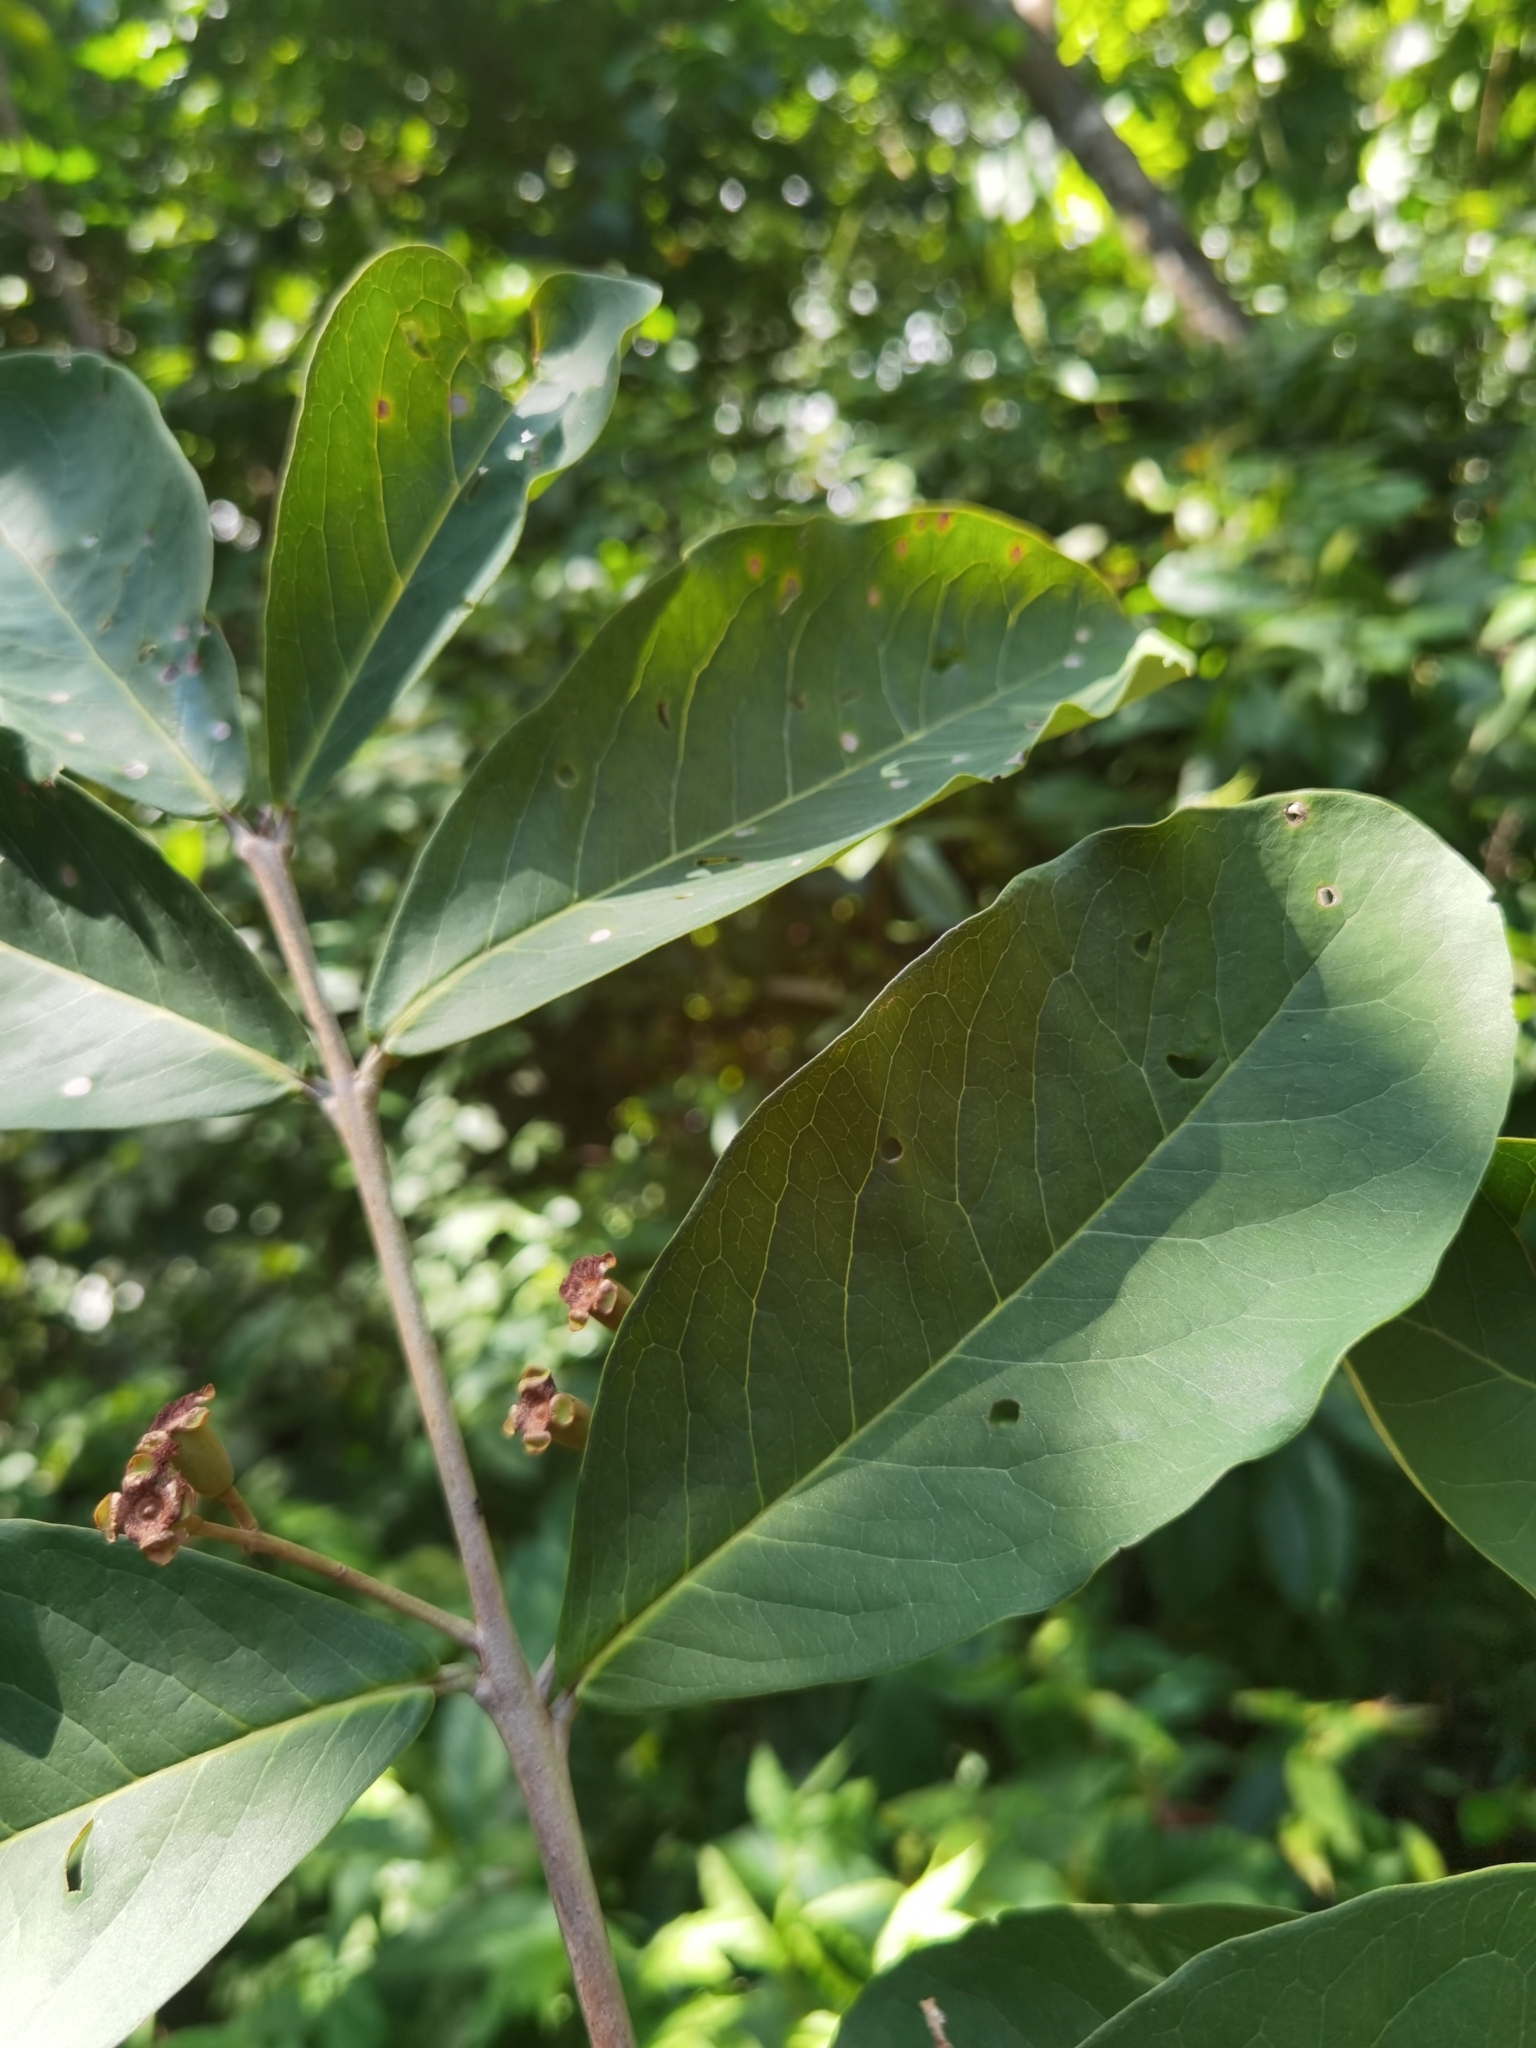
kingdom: Plantae
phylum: Tracheophyta
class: Magnoliopsida
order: Myrtales
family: Myrtaceae
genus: Eugenia
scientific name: Eugenia hiraeifolia
